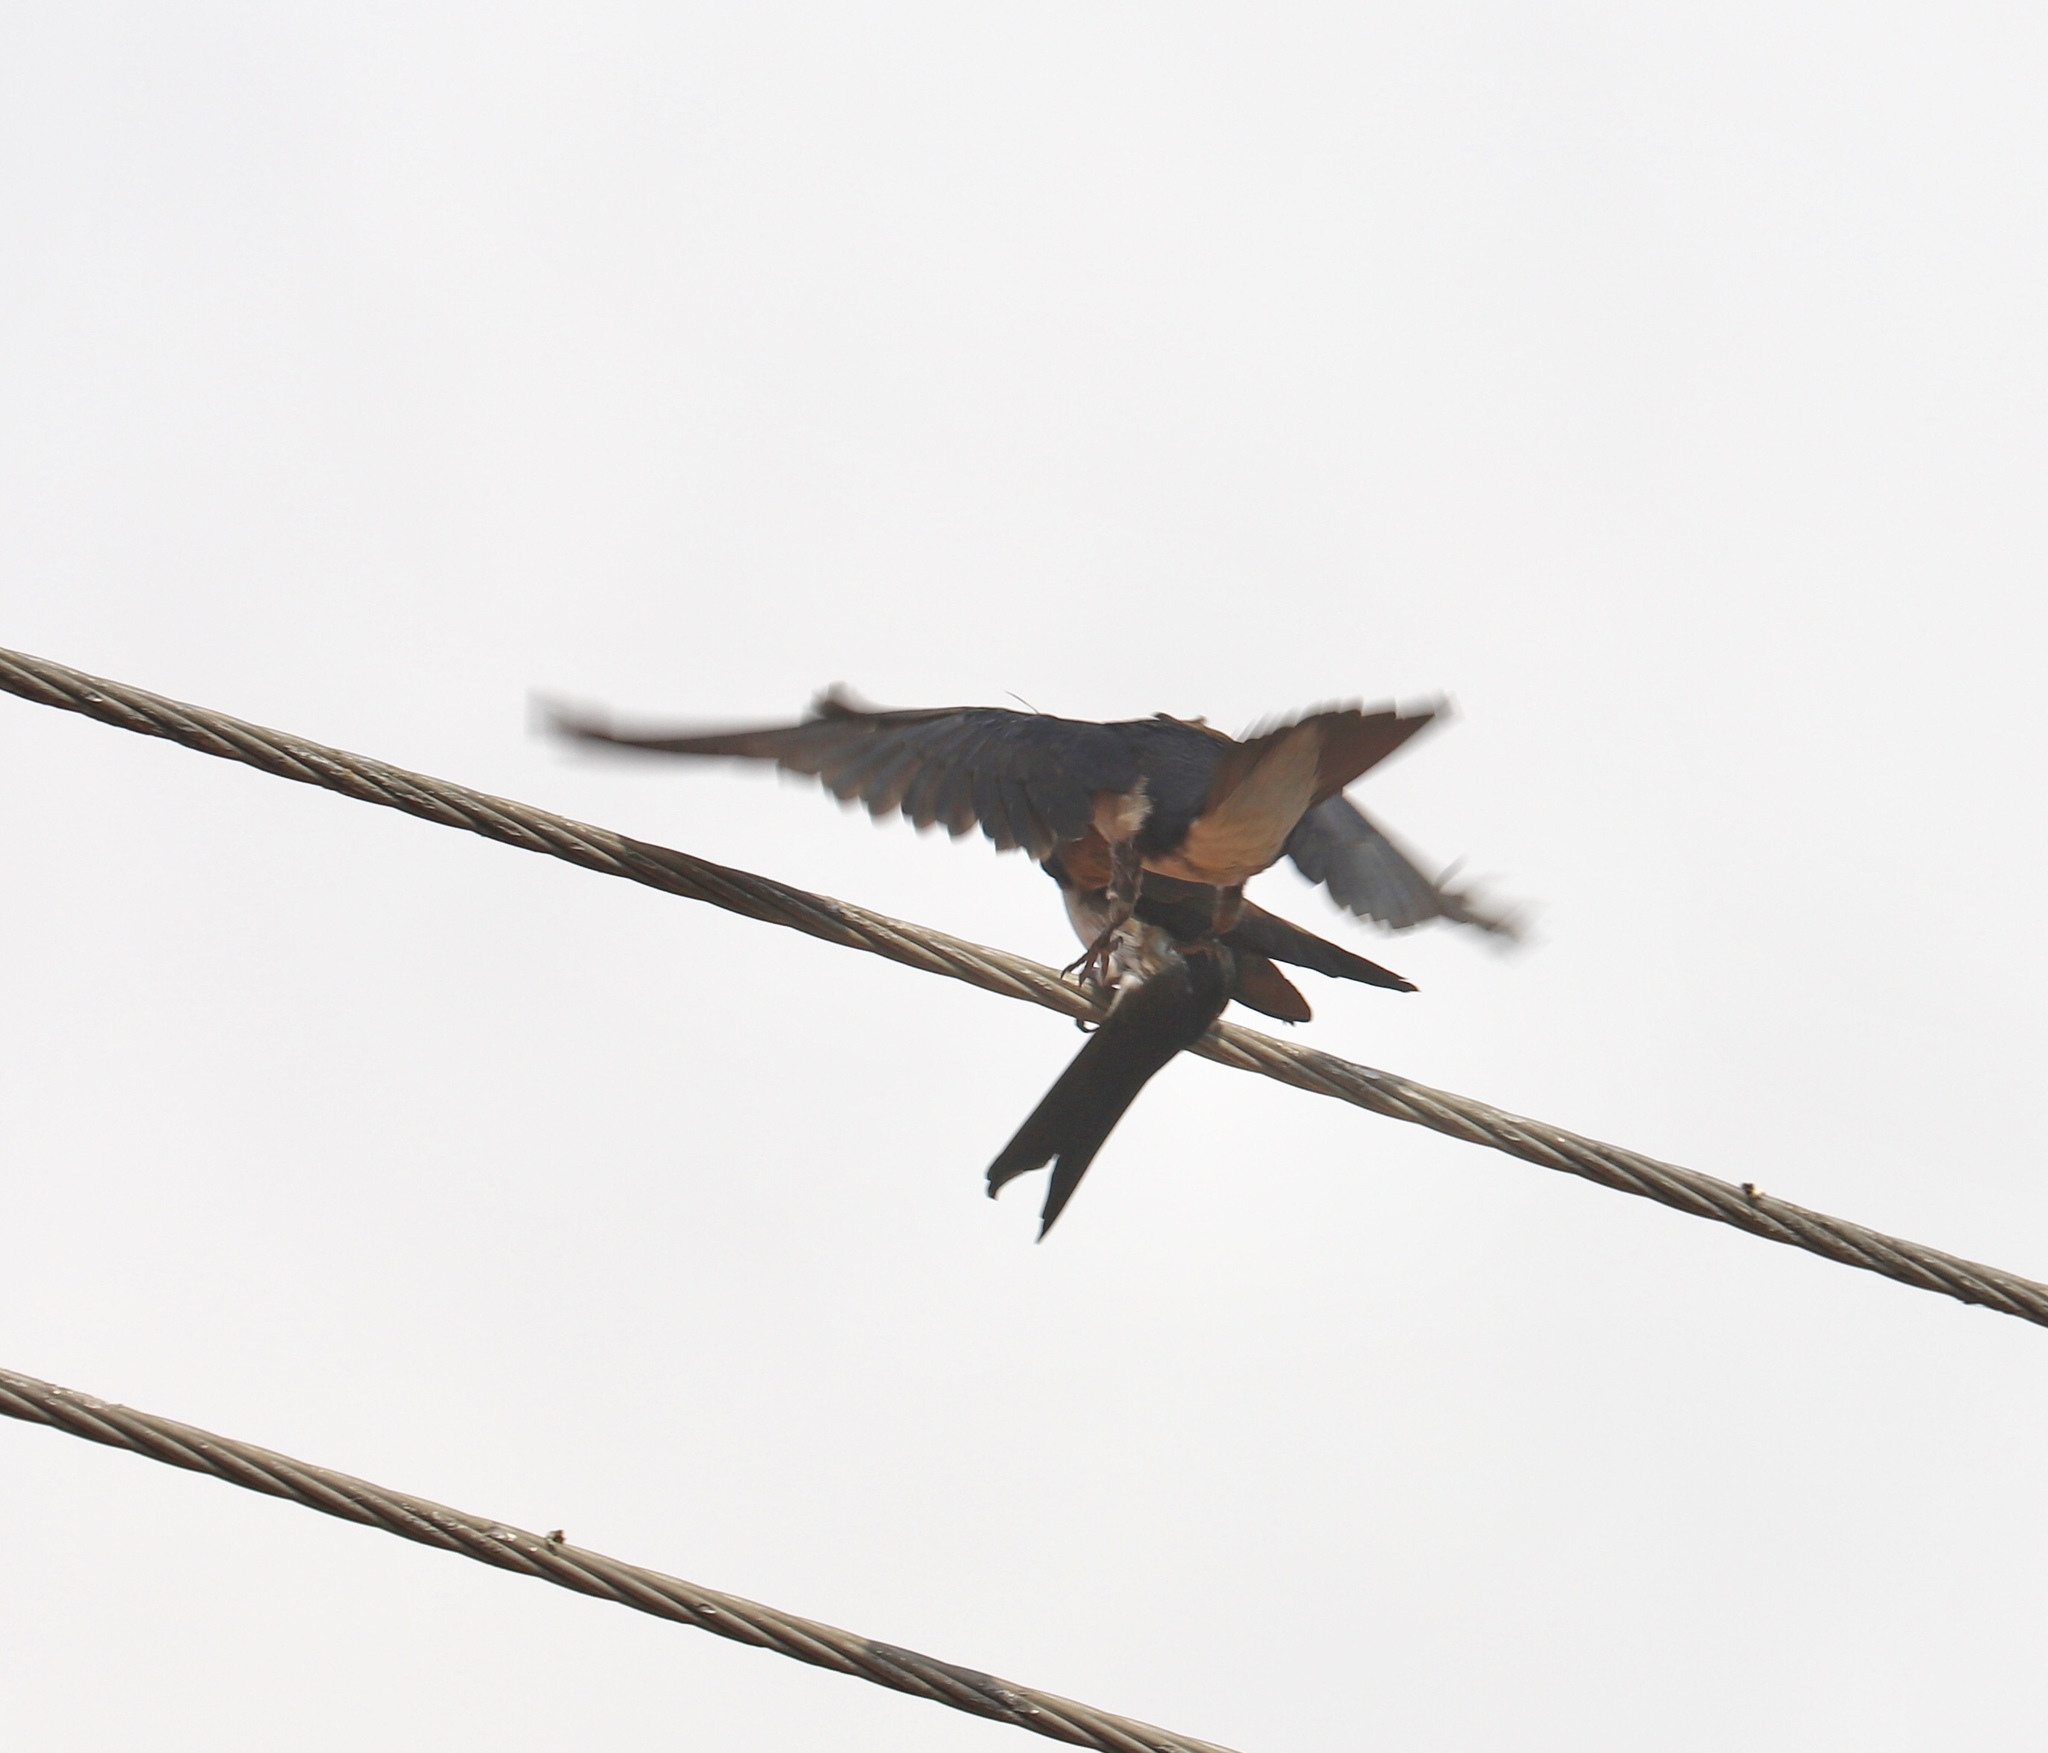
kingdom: Animalia
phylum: Chordata
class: Aves
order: Passeriformes
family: Hirundinidae
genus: Progne
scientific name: Progne chalybea
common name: Grey-breasted martin
